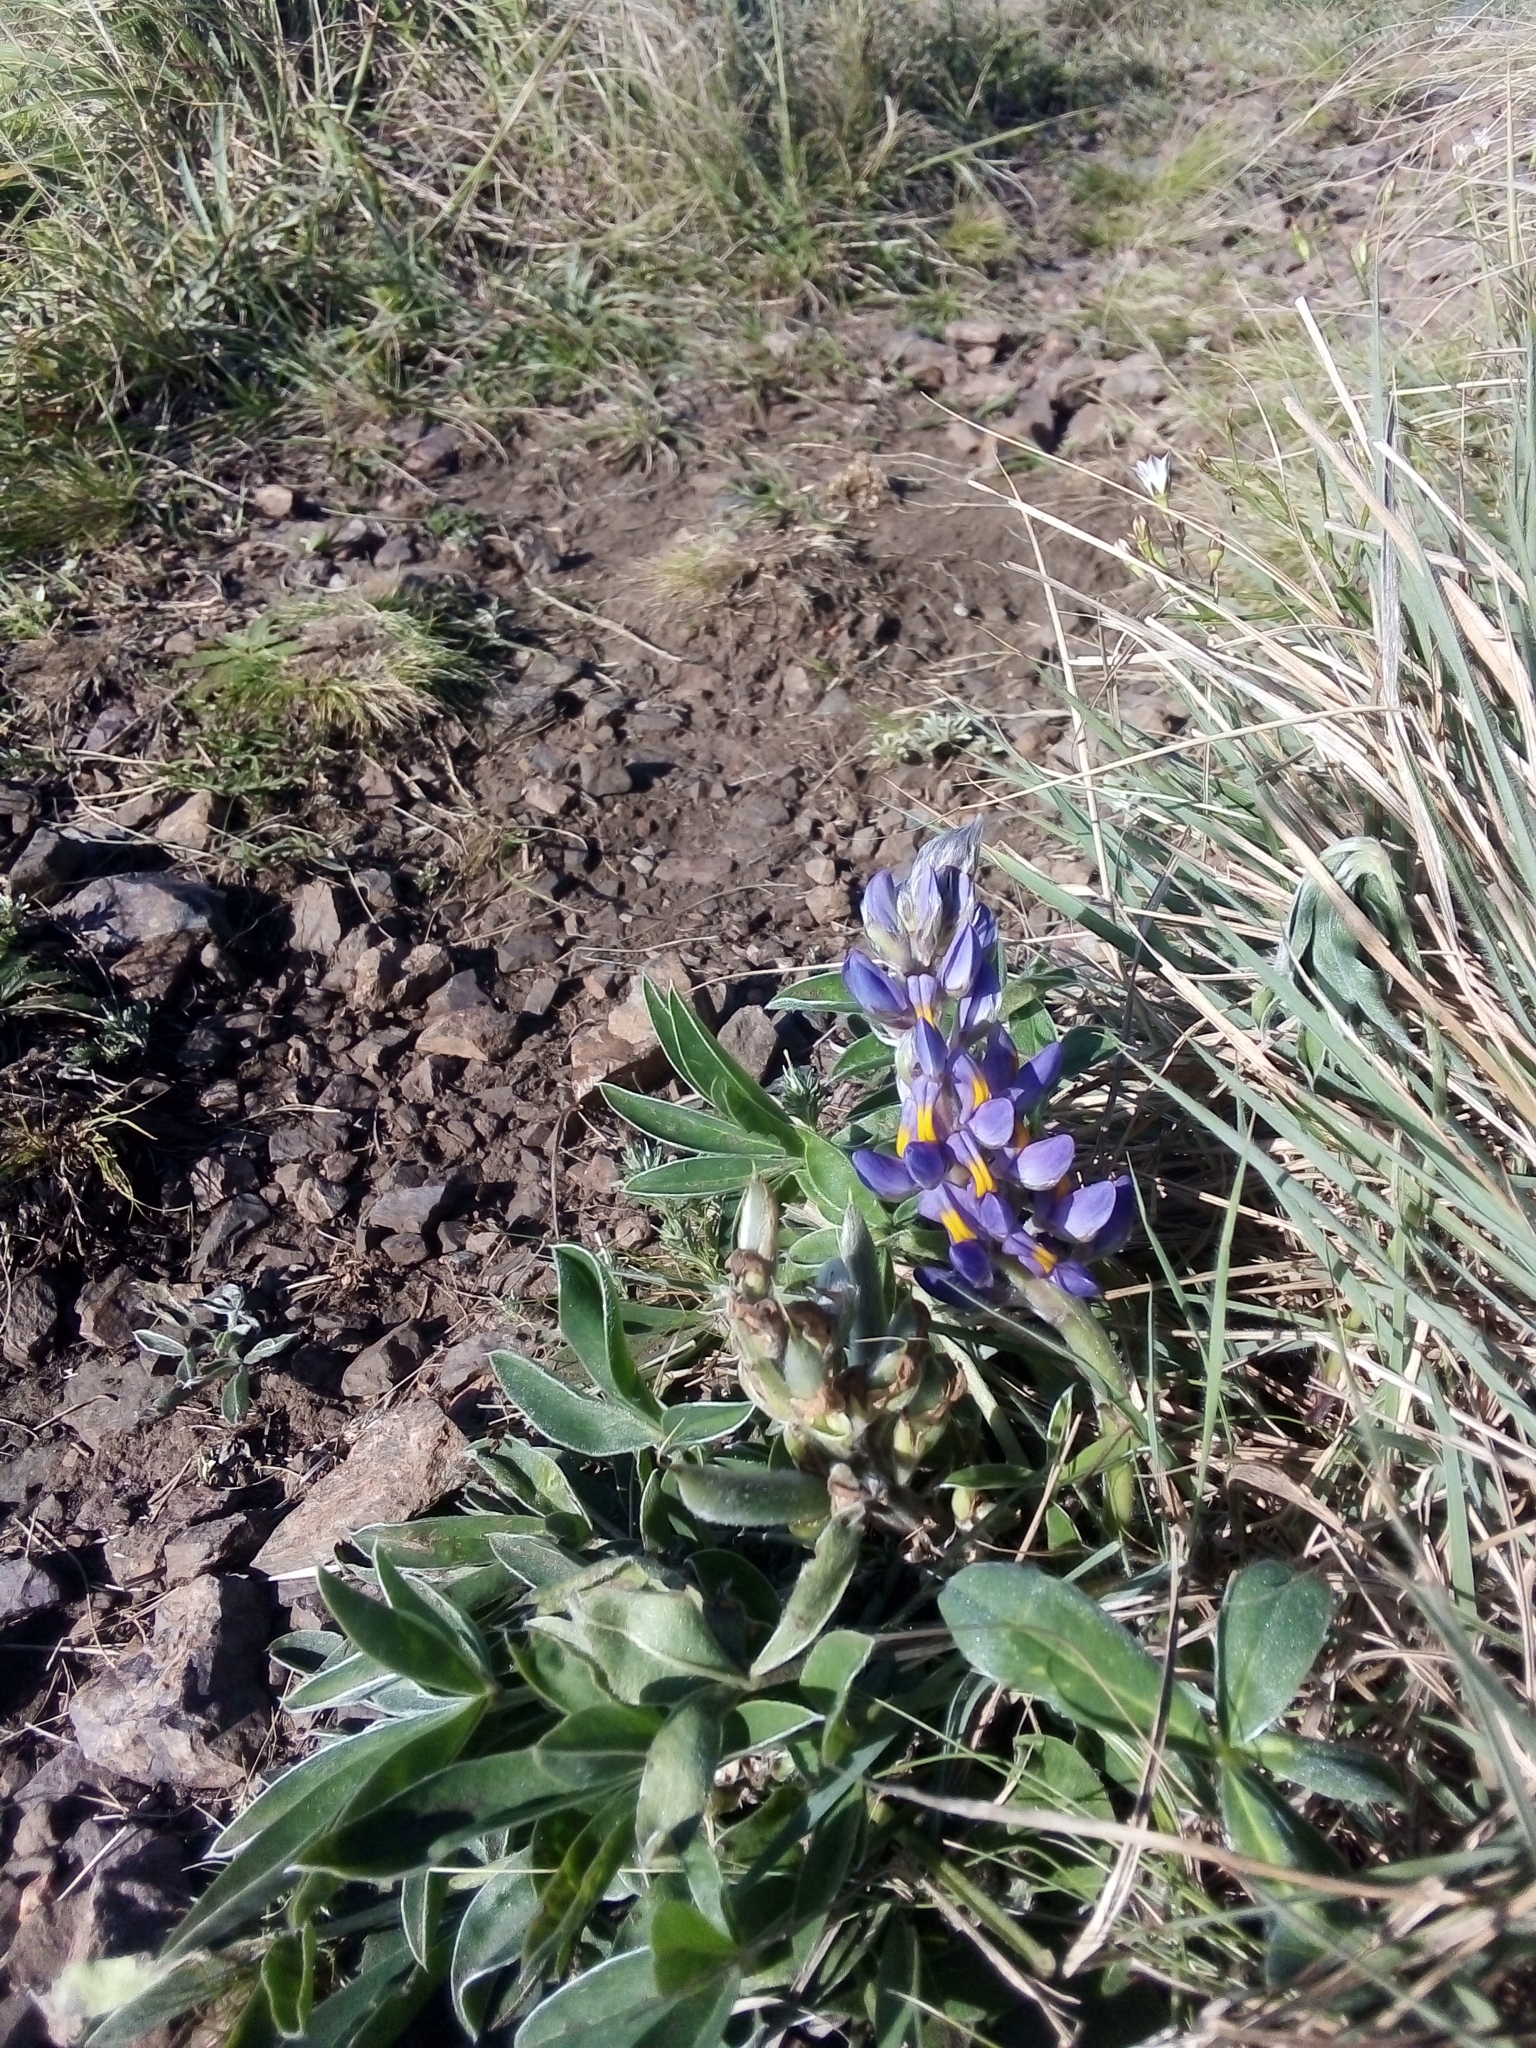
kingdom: Plantae
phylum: Tracheophyta
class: Magnoliopsida
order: Fabales
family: Fabaceae
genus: Lupinus
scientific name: Lupinus multiflorus
